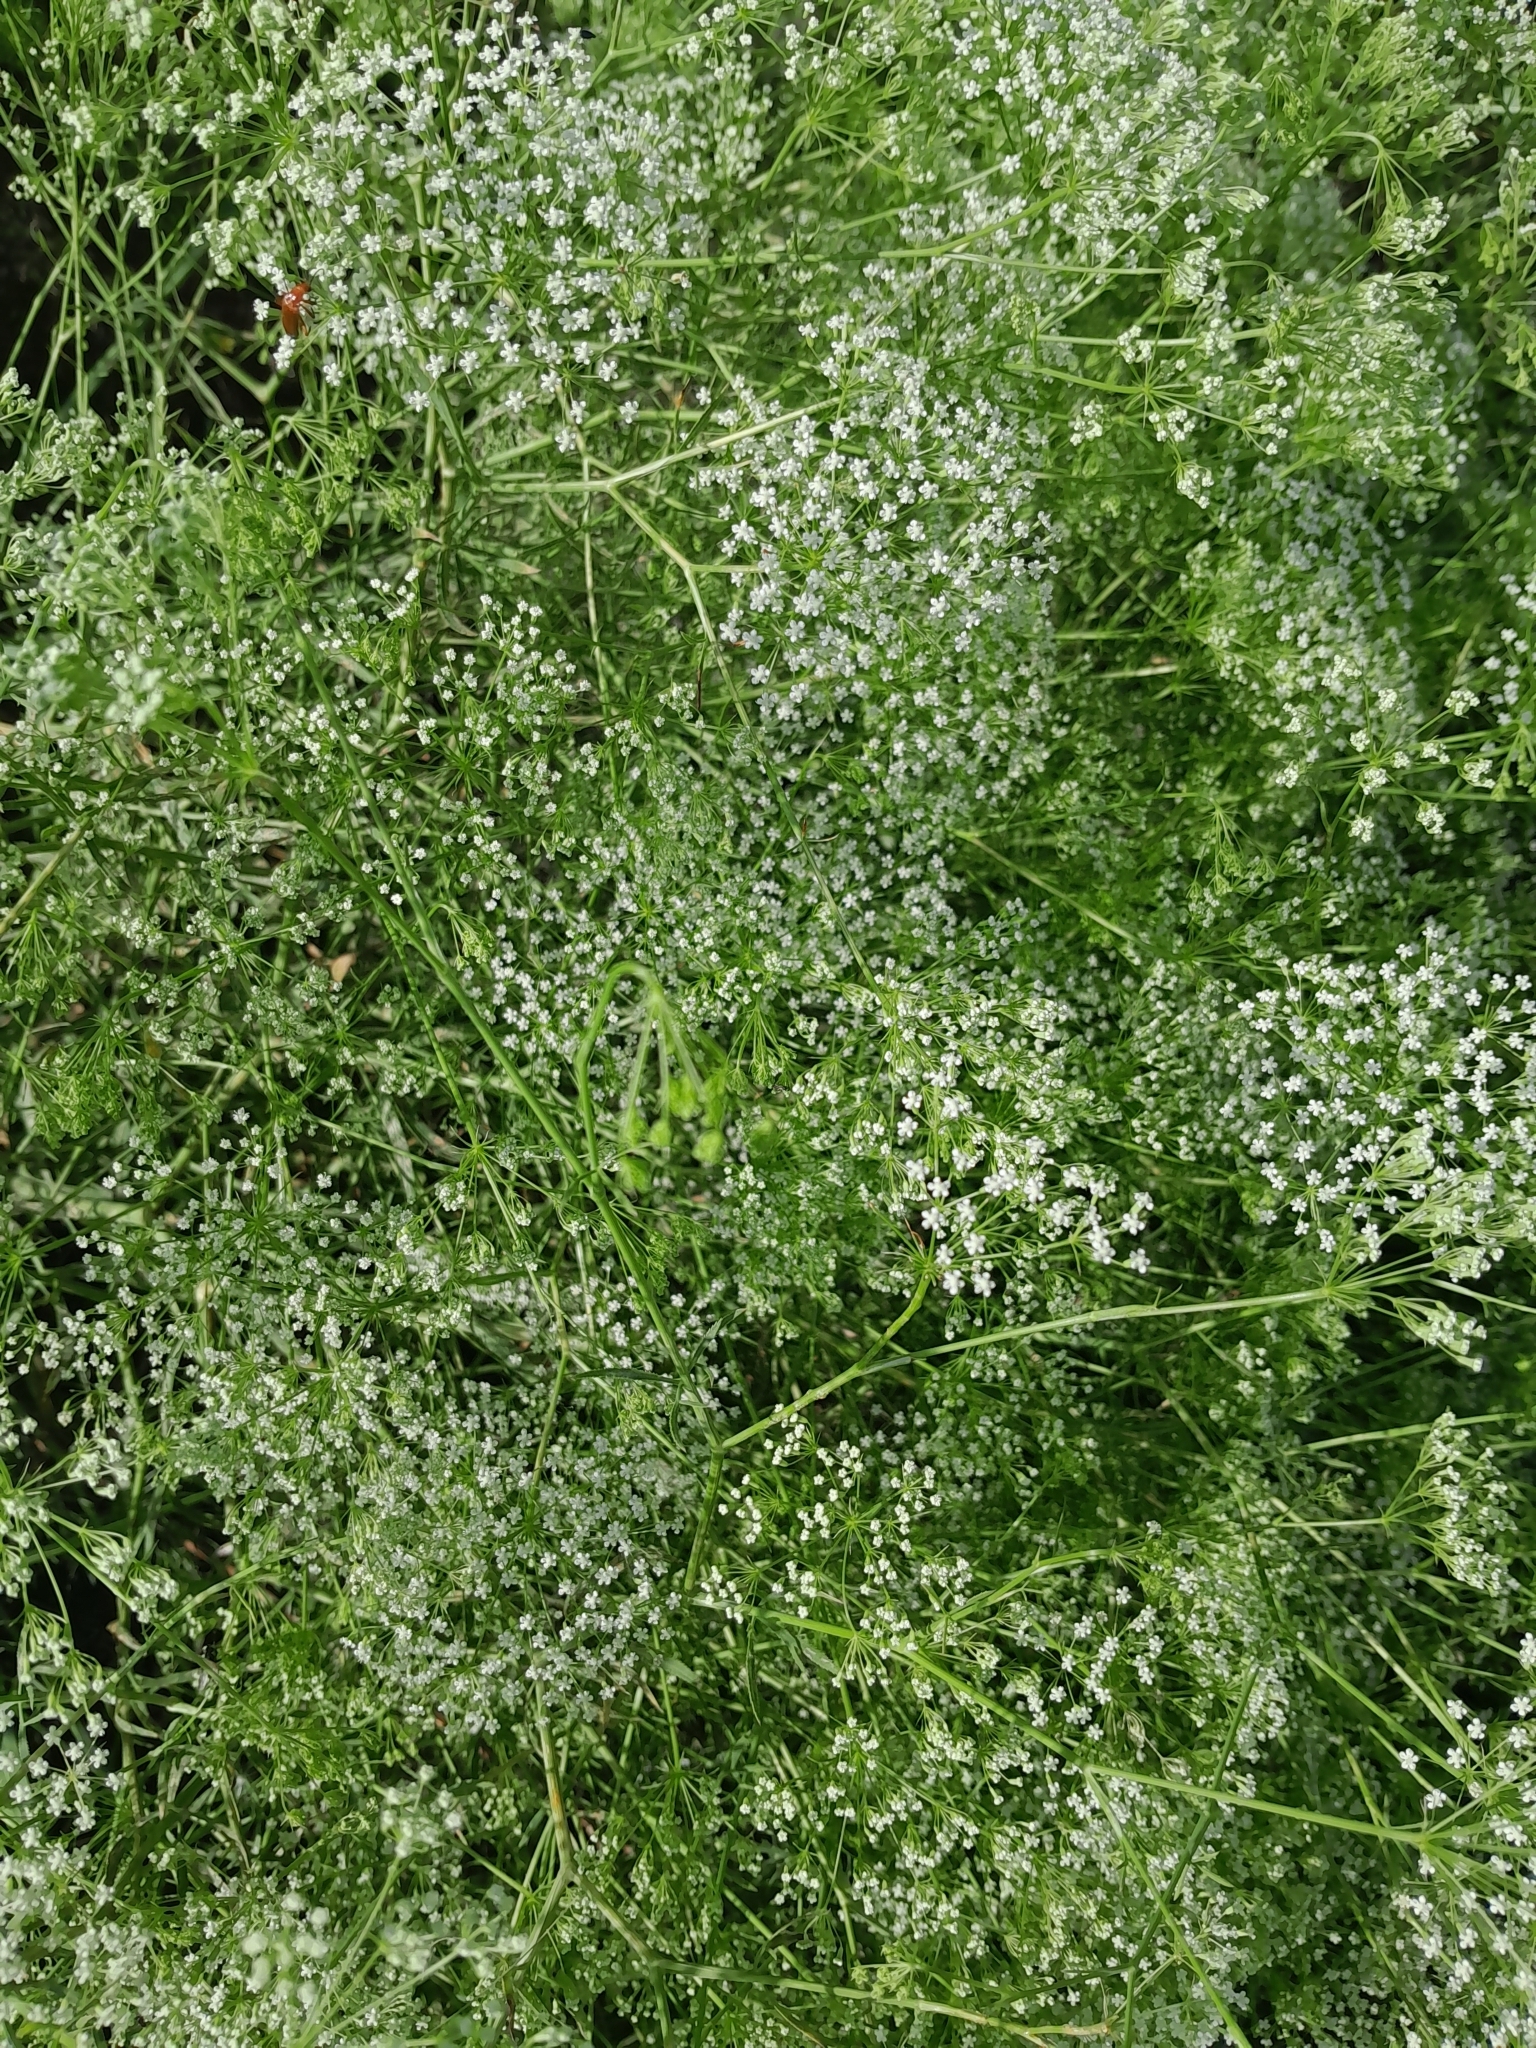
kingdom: Plantae
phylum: Tracheophyta
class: Magnoliopsida
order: Apiales
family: Apiaceae
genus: Falcaria
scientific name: Falcaria vulgaris
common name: Longleaf
